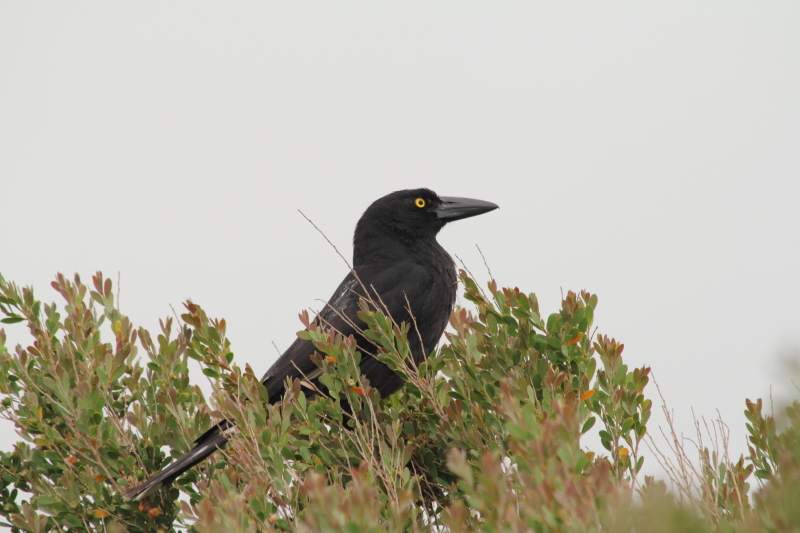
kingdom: Animalia
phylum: Chordata
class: Aves
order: Passeriformes
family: Cracticidae
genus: Strepera
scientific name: Strepera graculina
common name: Pied currawong
